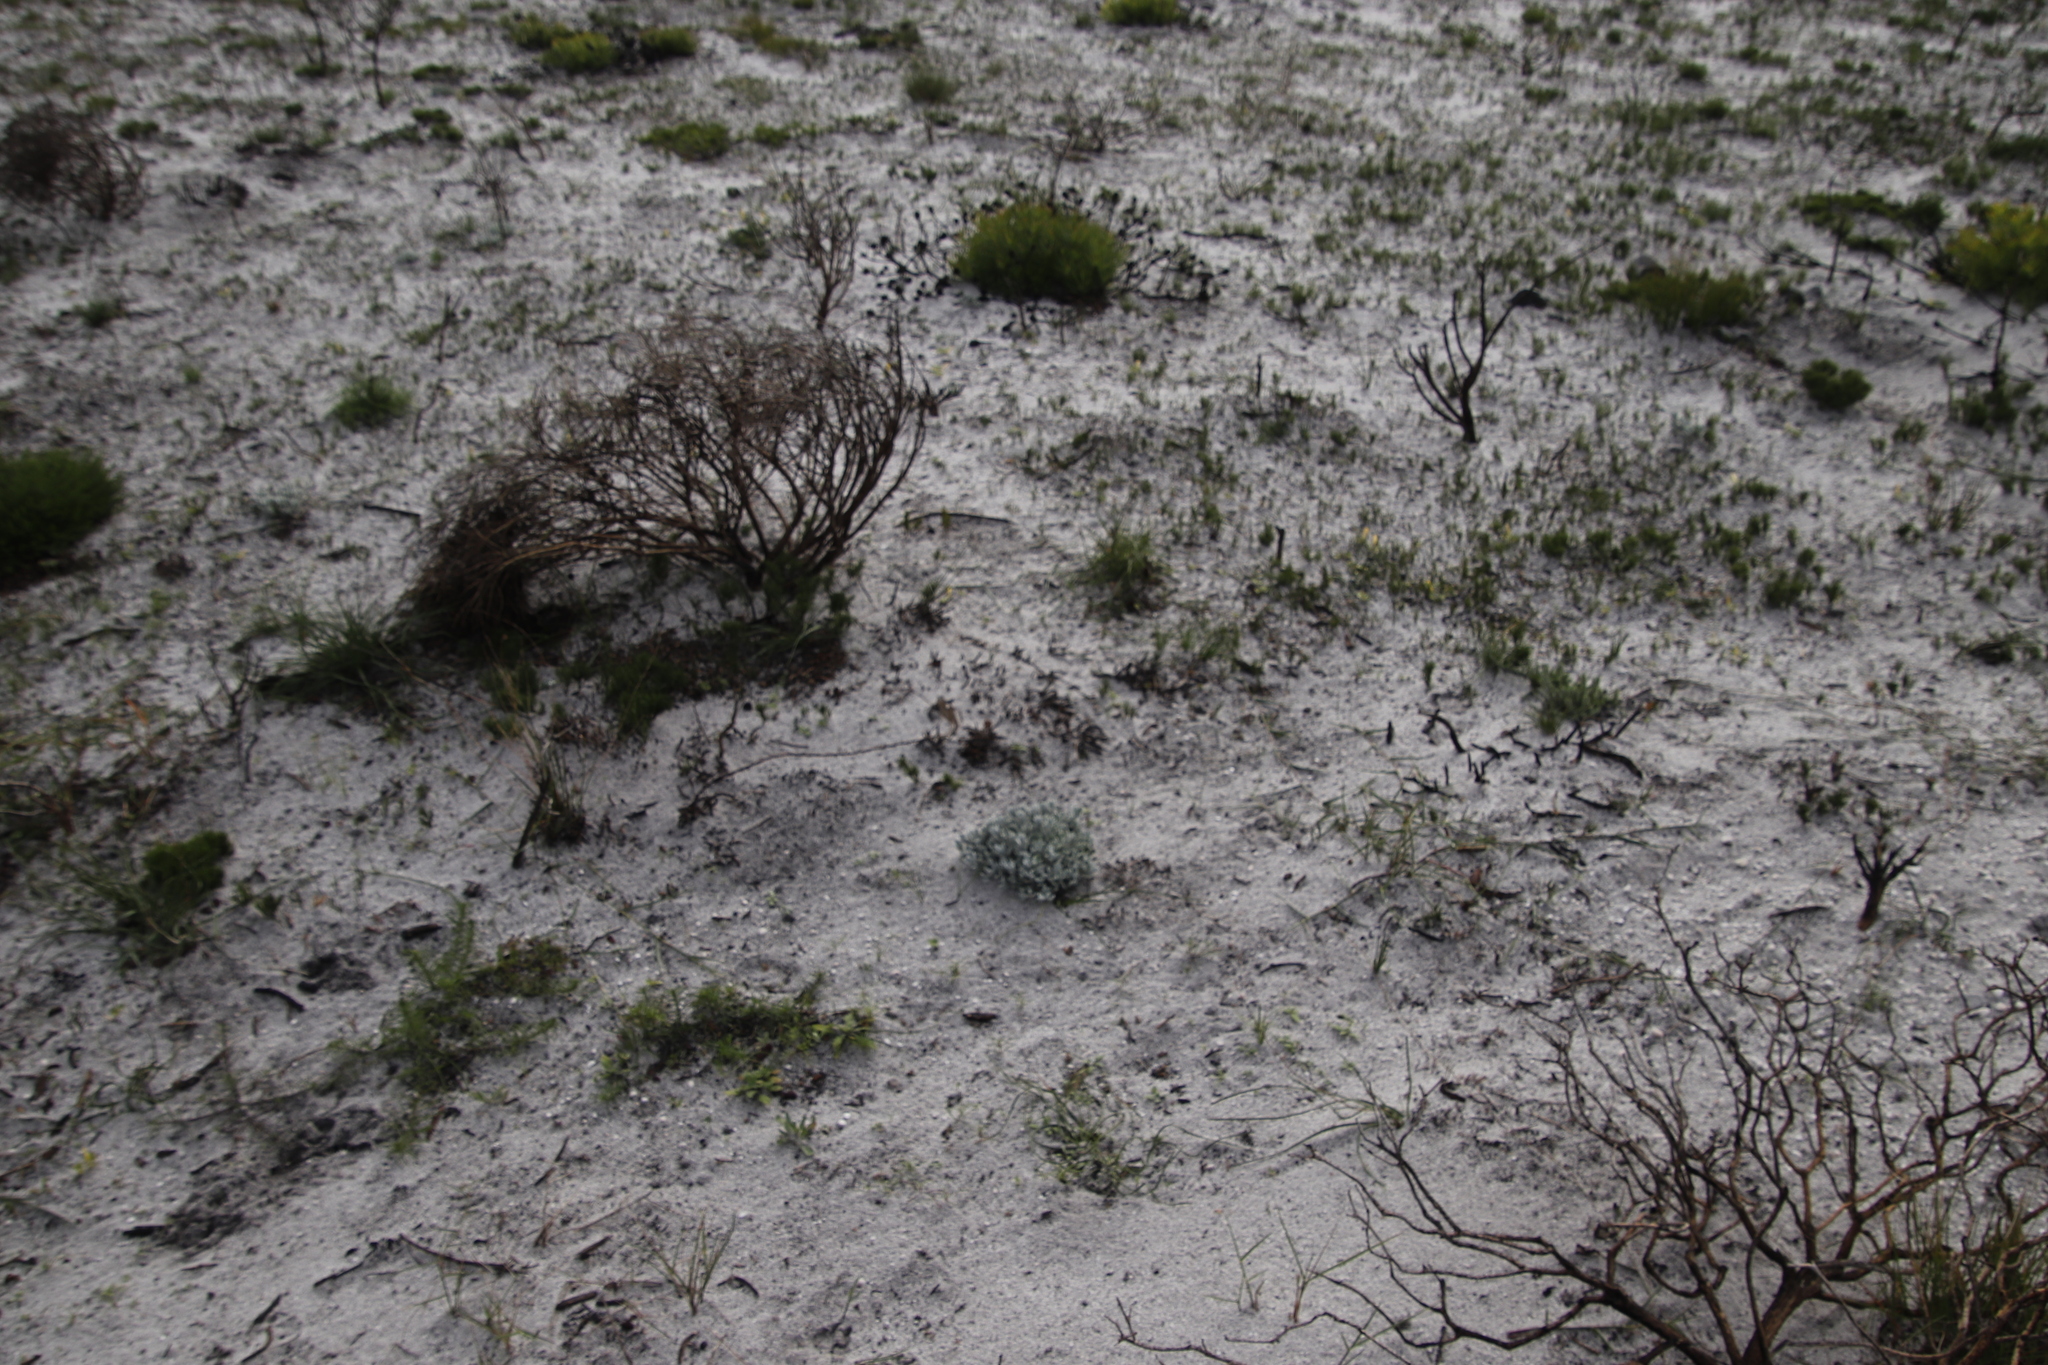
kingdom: Plantae
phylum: Tracheophyta
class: Magnoliopsida
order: Asterales
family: Asteraceae
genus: Petalacte
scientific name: Petalacte coronata
